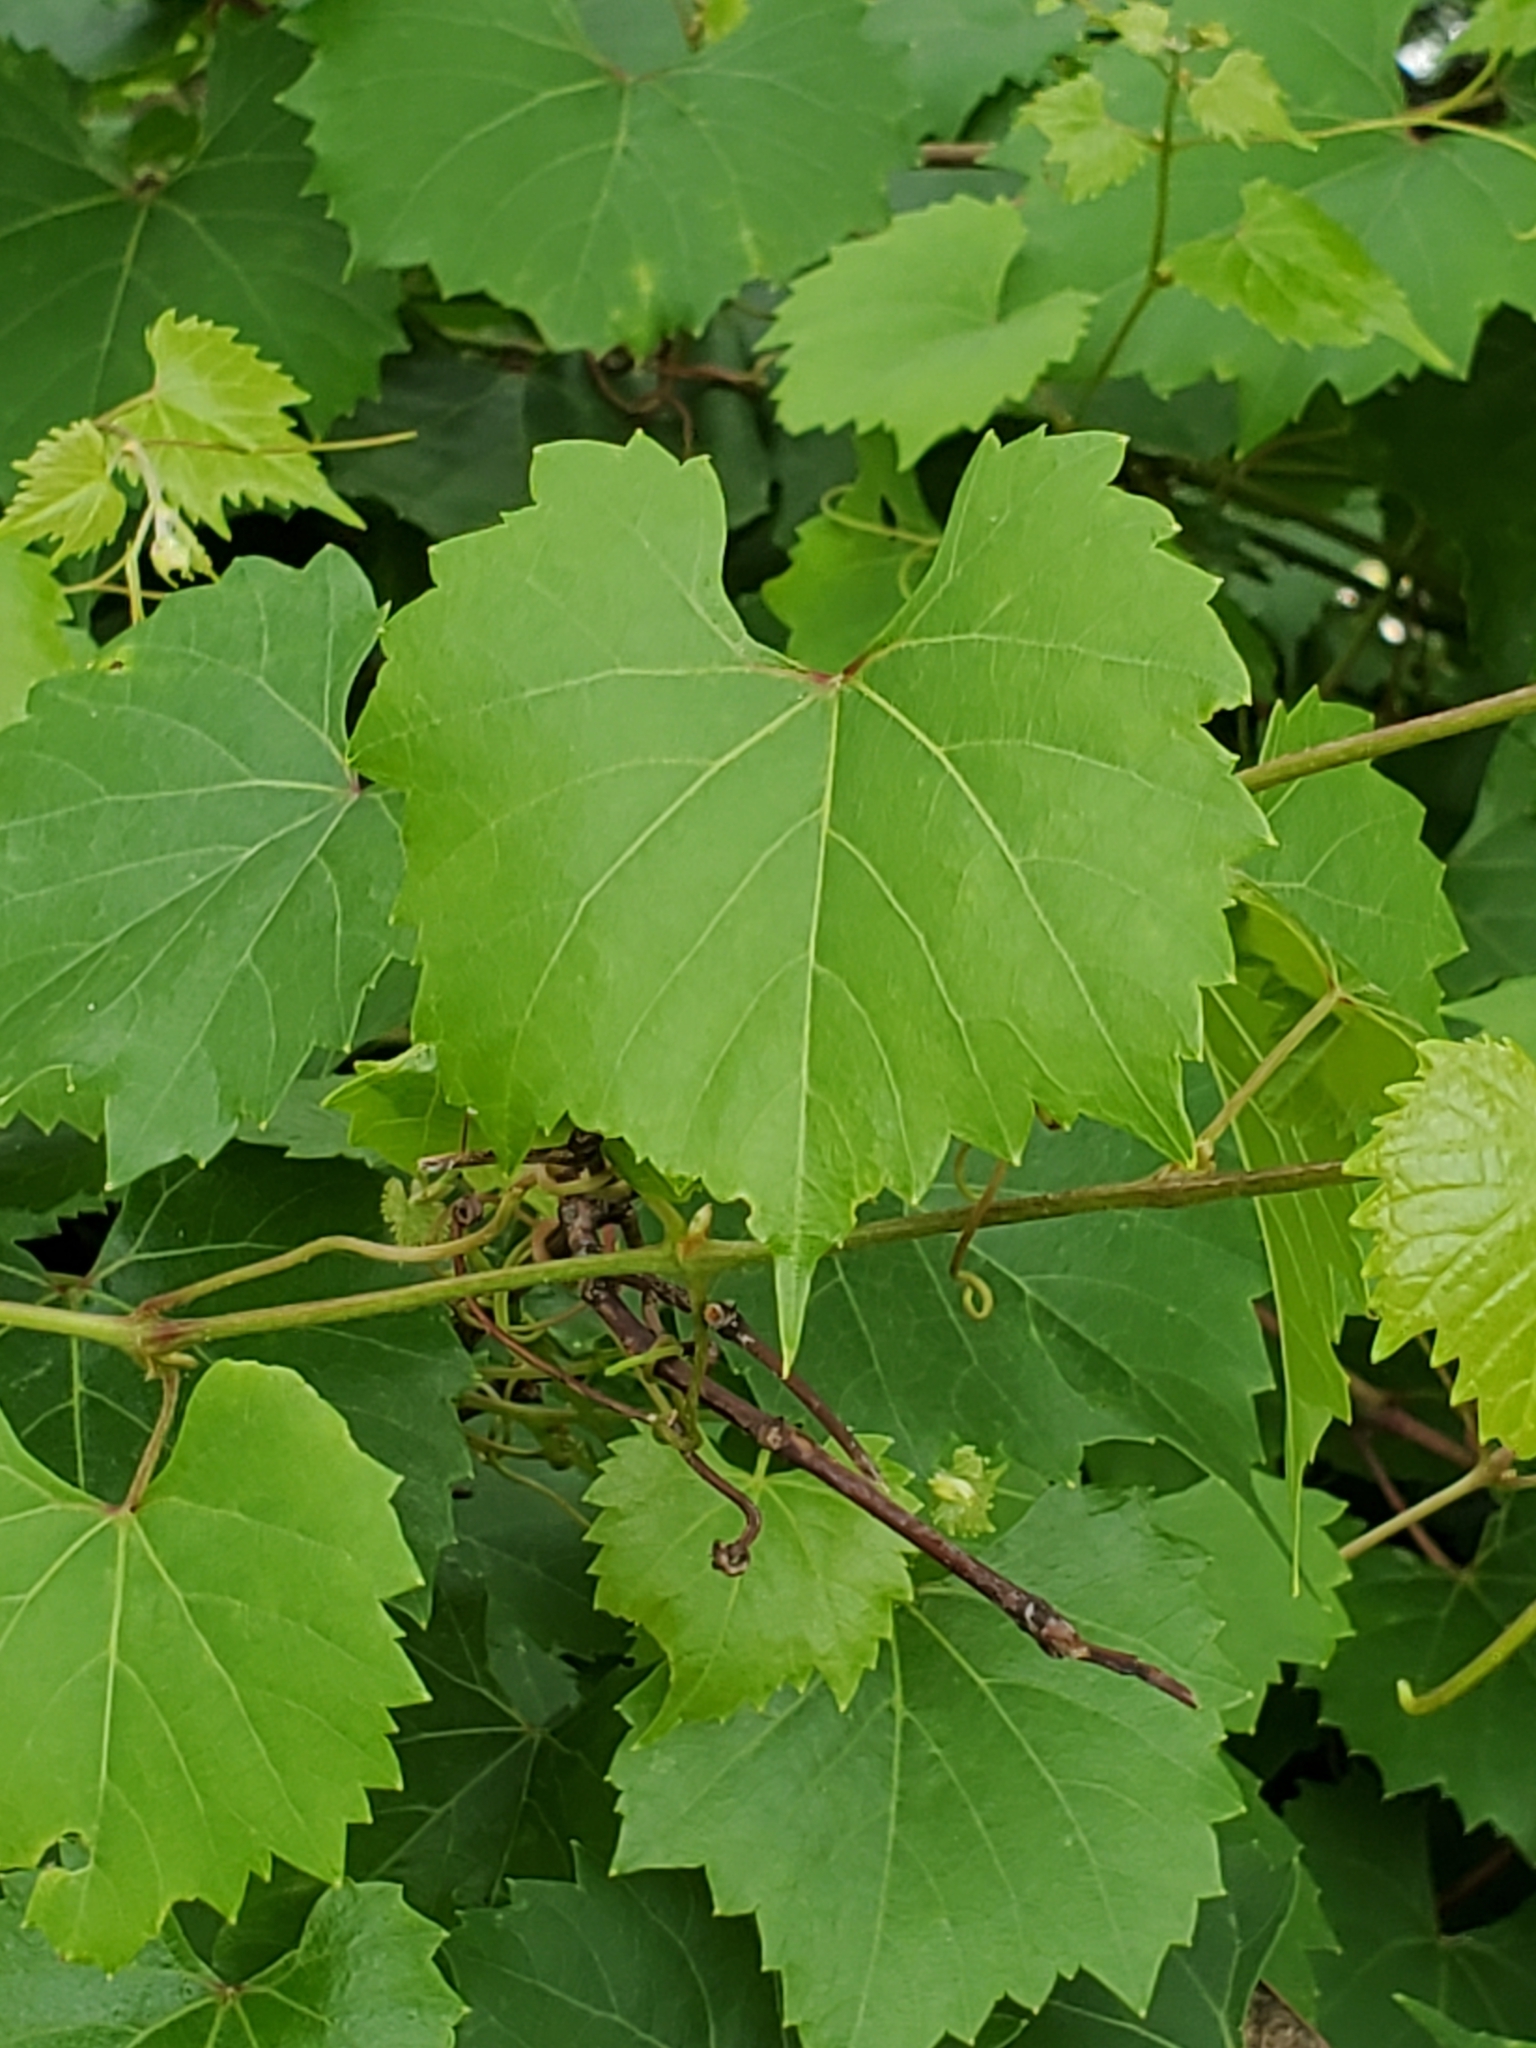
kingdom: Plantae
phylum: Tracheophyta
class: Magnoliopsida
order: Vitales
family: Vitaceae
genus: Vitis
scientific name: Vitis monticola
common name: Mountain grape
